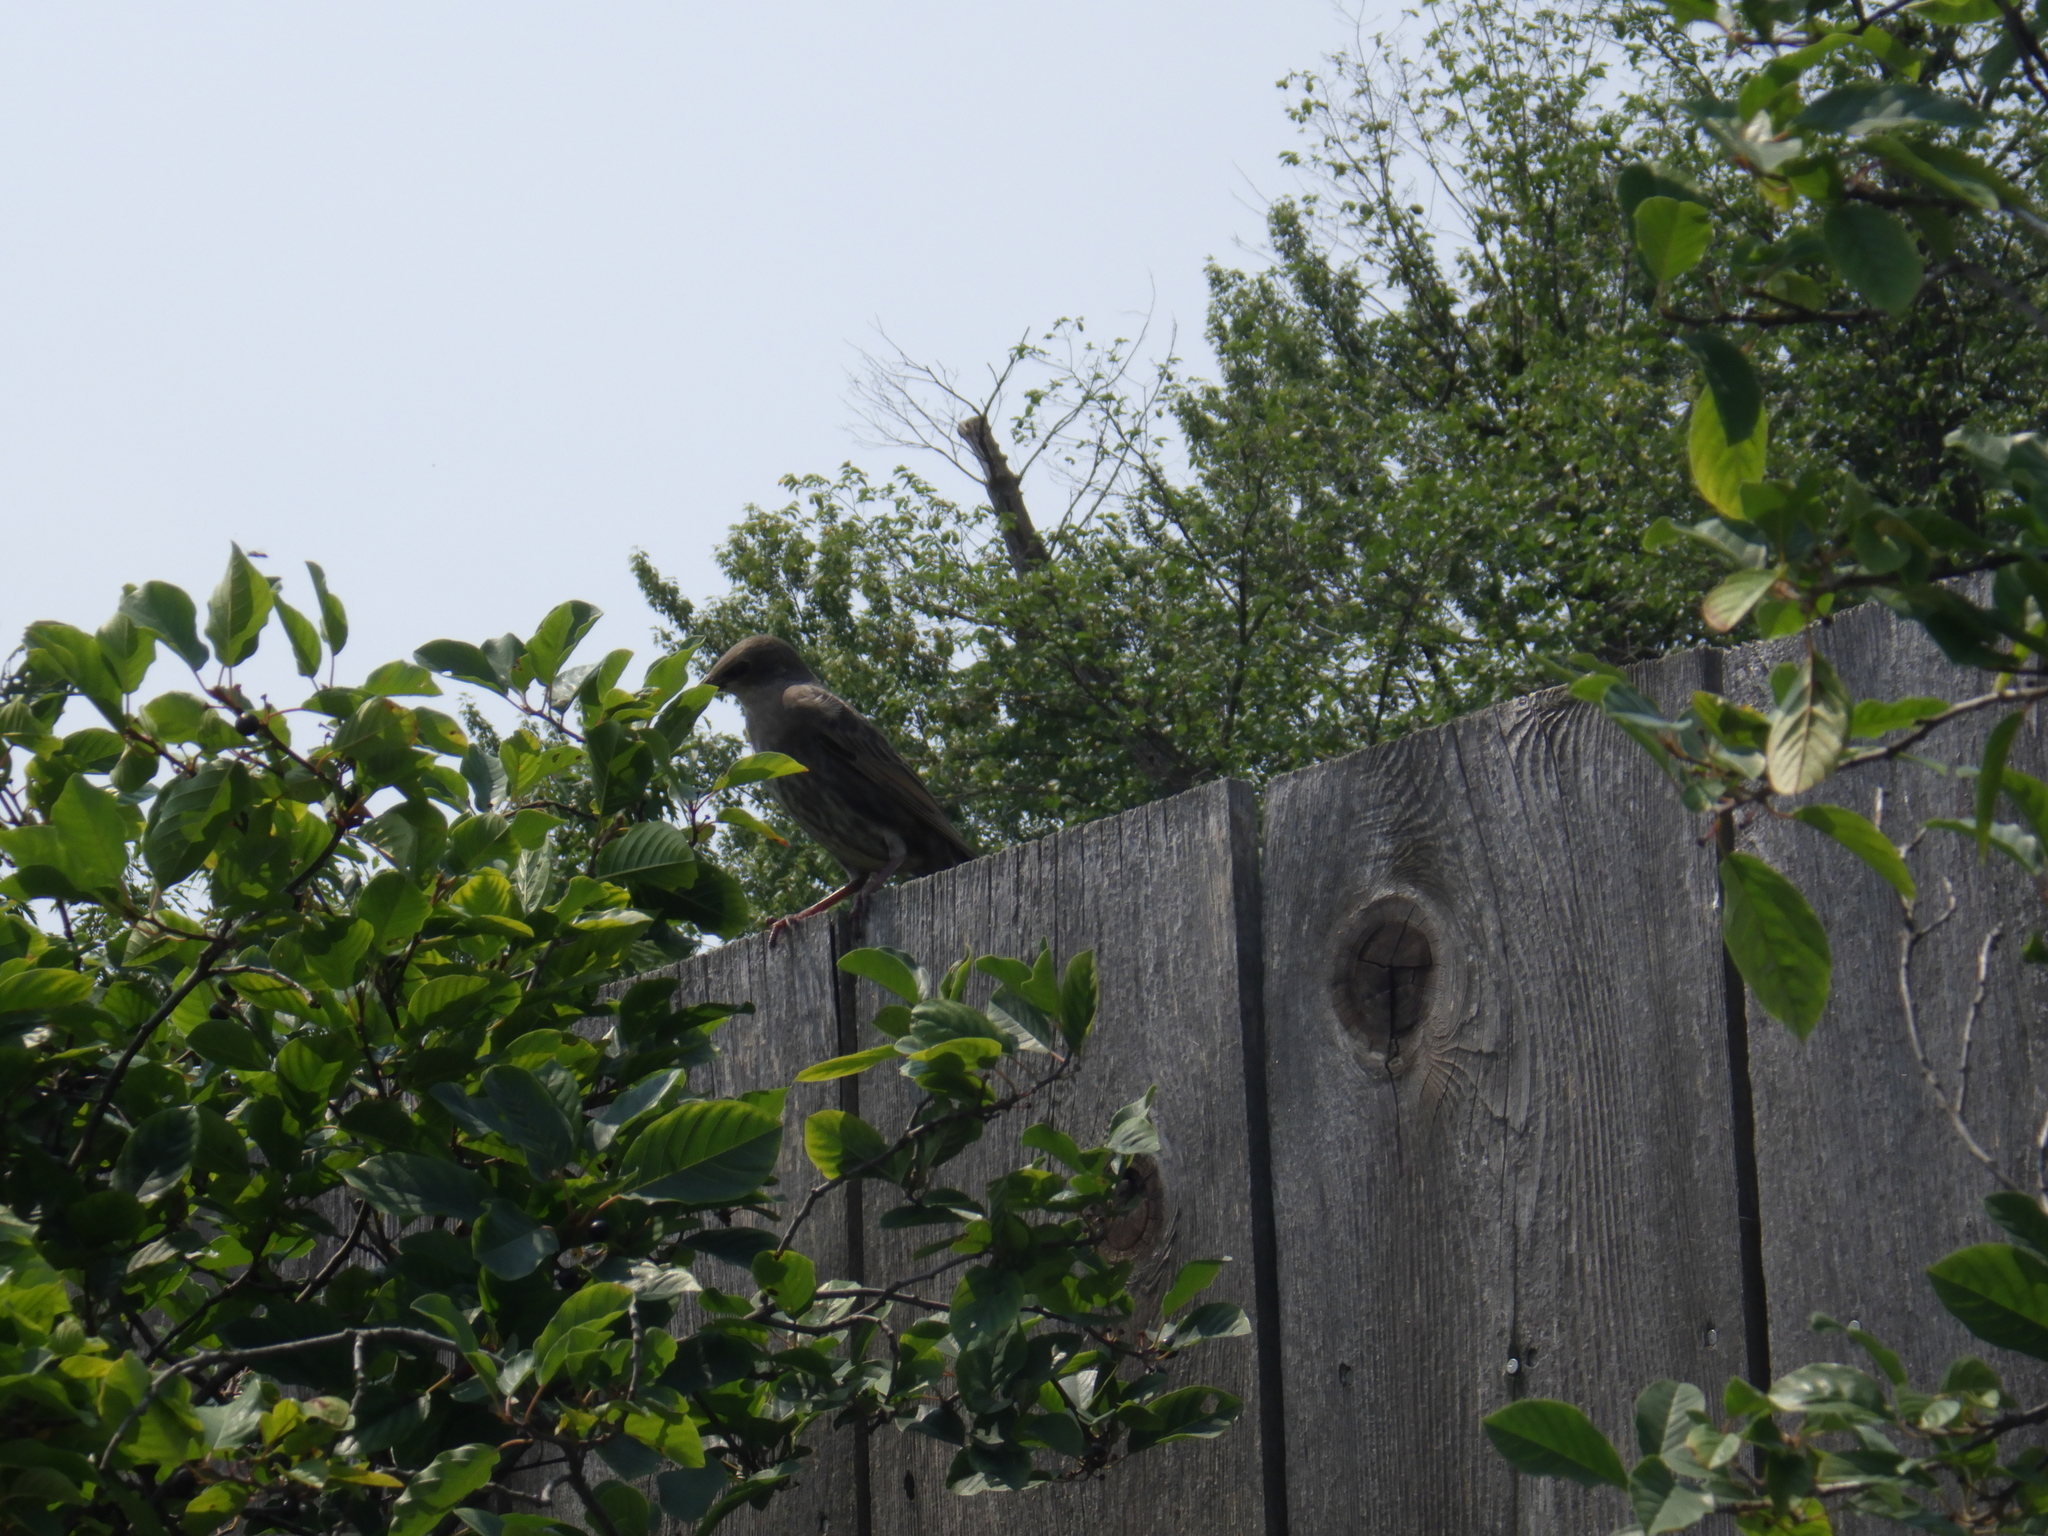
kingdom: Animalia
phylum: Chordata
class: Aves
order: Passeriformes
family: Sturnidae
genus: Sturnus
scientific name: Sturnus vulgaris
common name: Common starling
